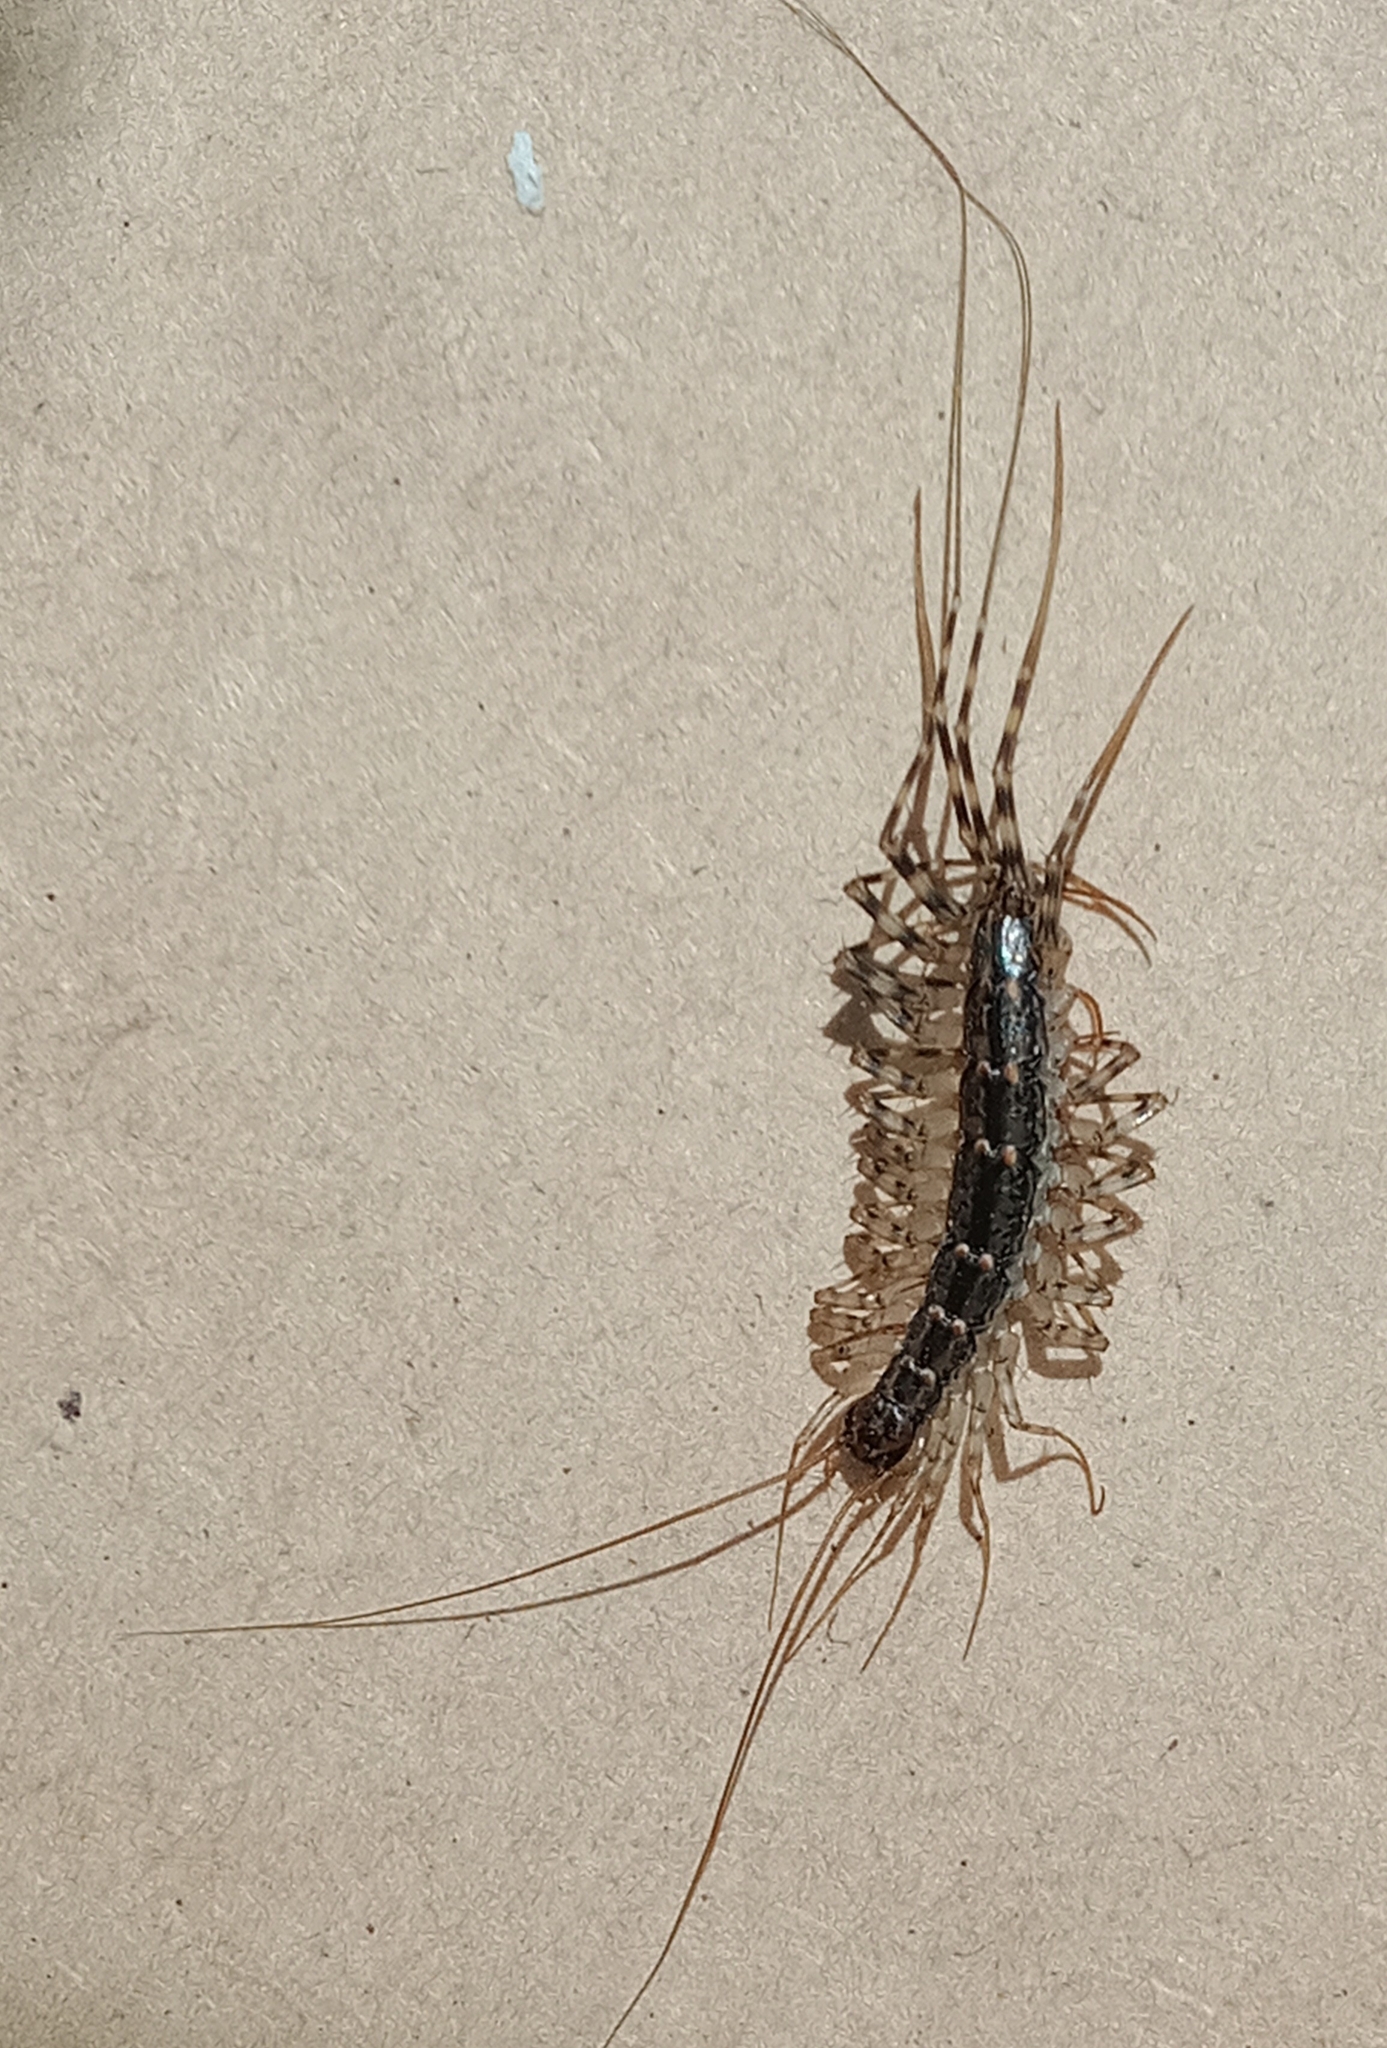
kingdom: Animalia
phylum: Arthropoda
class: Chilopoda
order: Scutigeromorpha
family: Scutigeridae
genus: Thereuonema
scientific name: Thereuonema tuberculata
